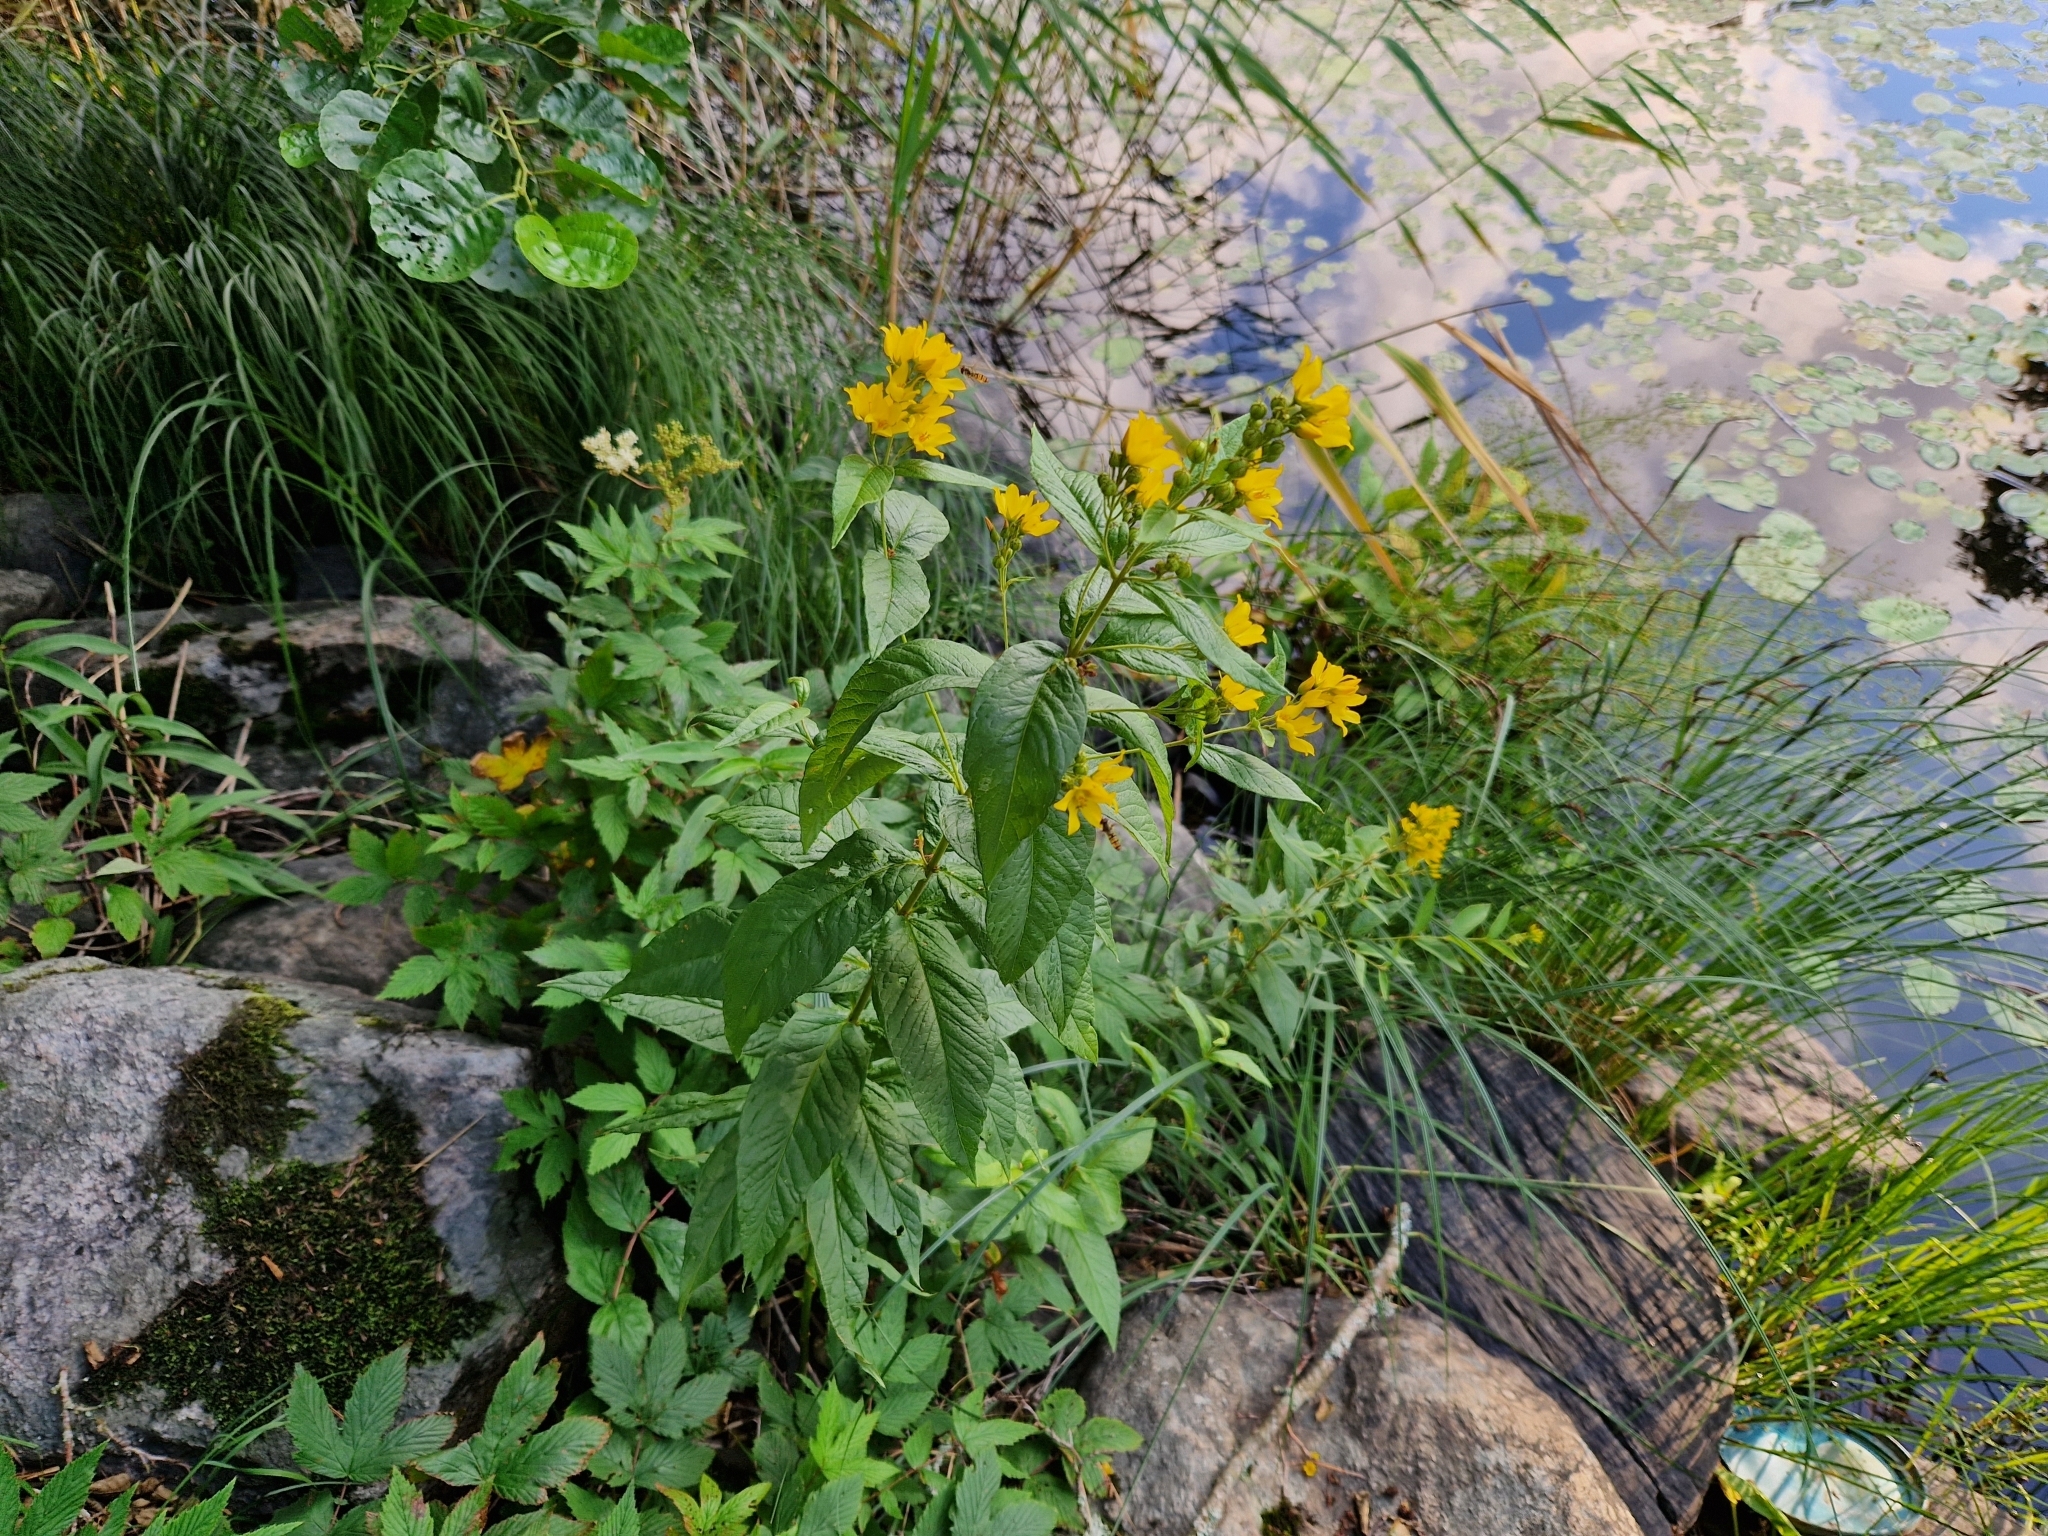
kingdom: Plantae
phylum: Tracheophyta
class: Magnoliopsida
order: Ericales
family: Primulaceae
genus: Lysimachia
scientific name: Lysimachia vulgaris
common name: Yellow loosestrife
